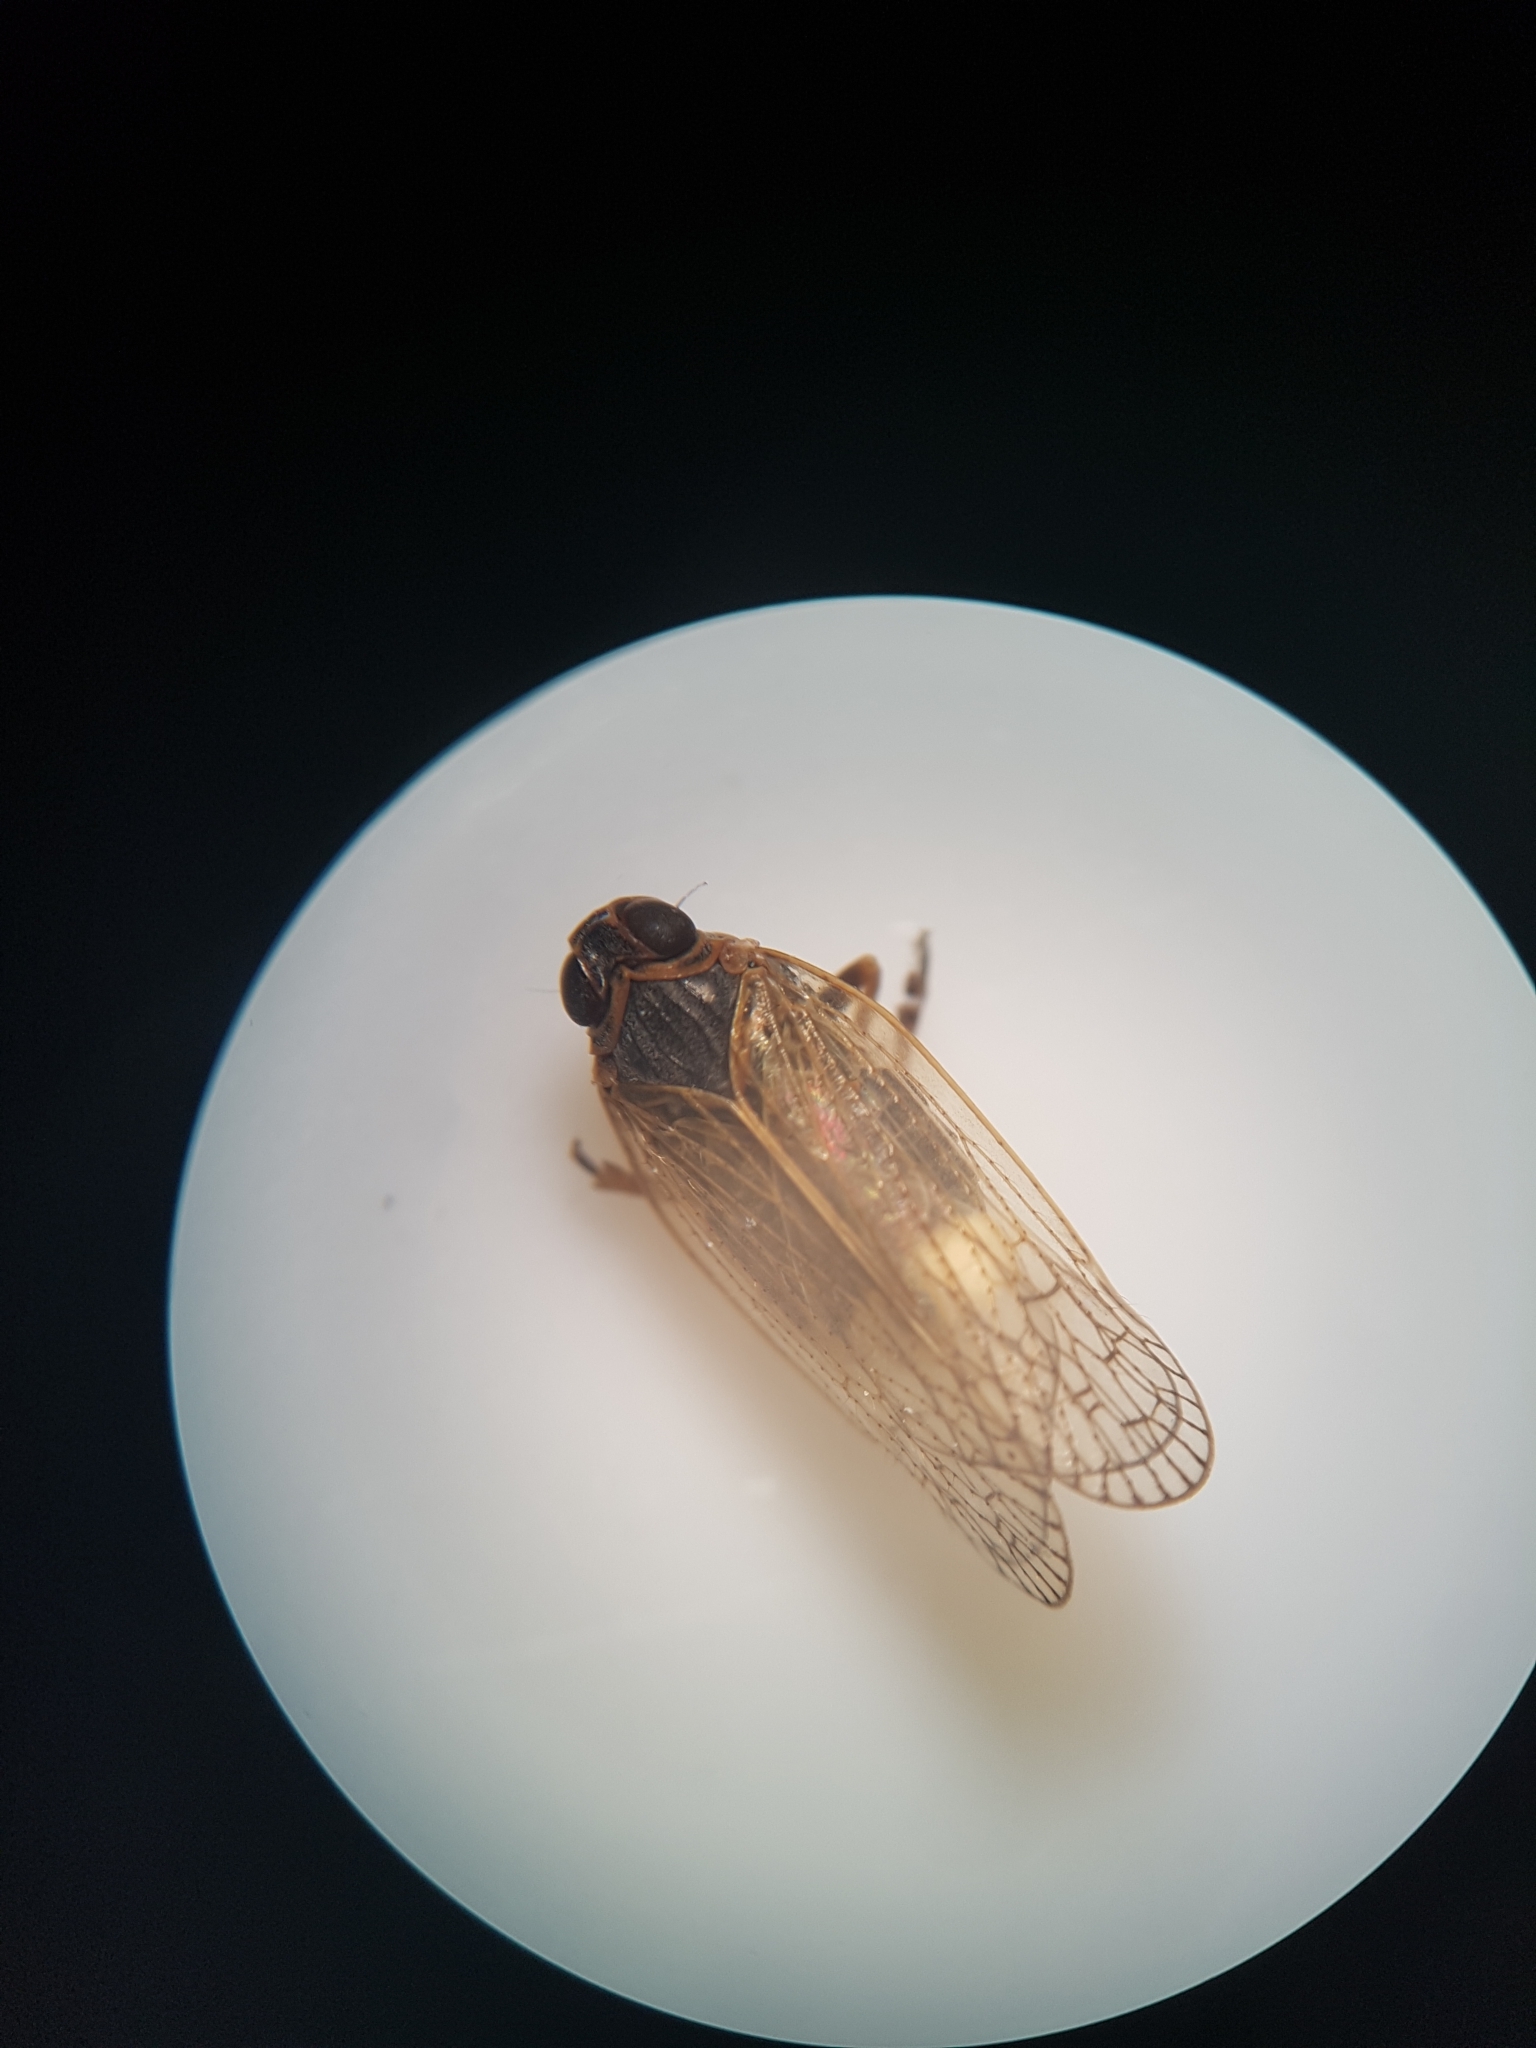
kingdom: Animalia
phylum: Arthropoda
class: Insecta
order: Hemiptera
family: Cixiidae
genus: Zeoliarus
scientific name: Zeoliarus oppositus
